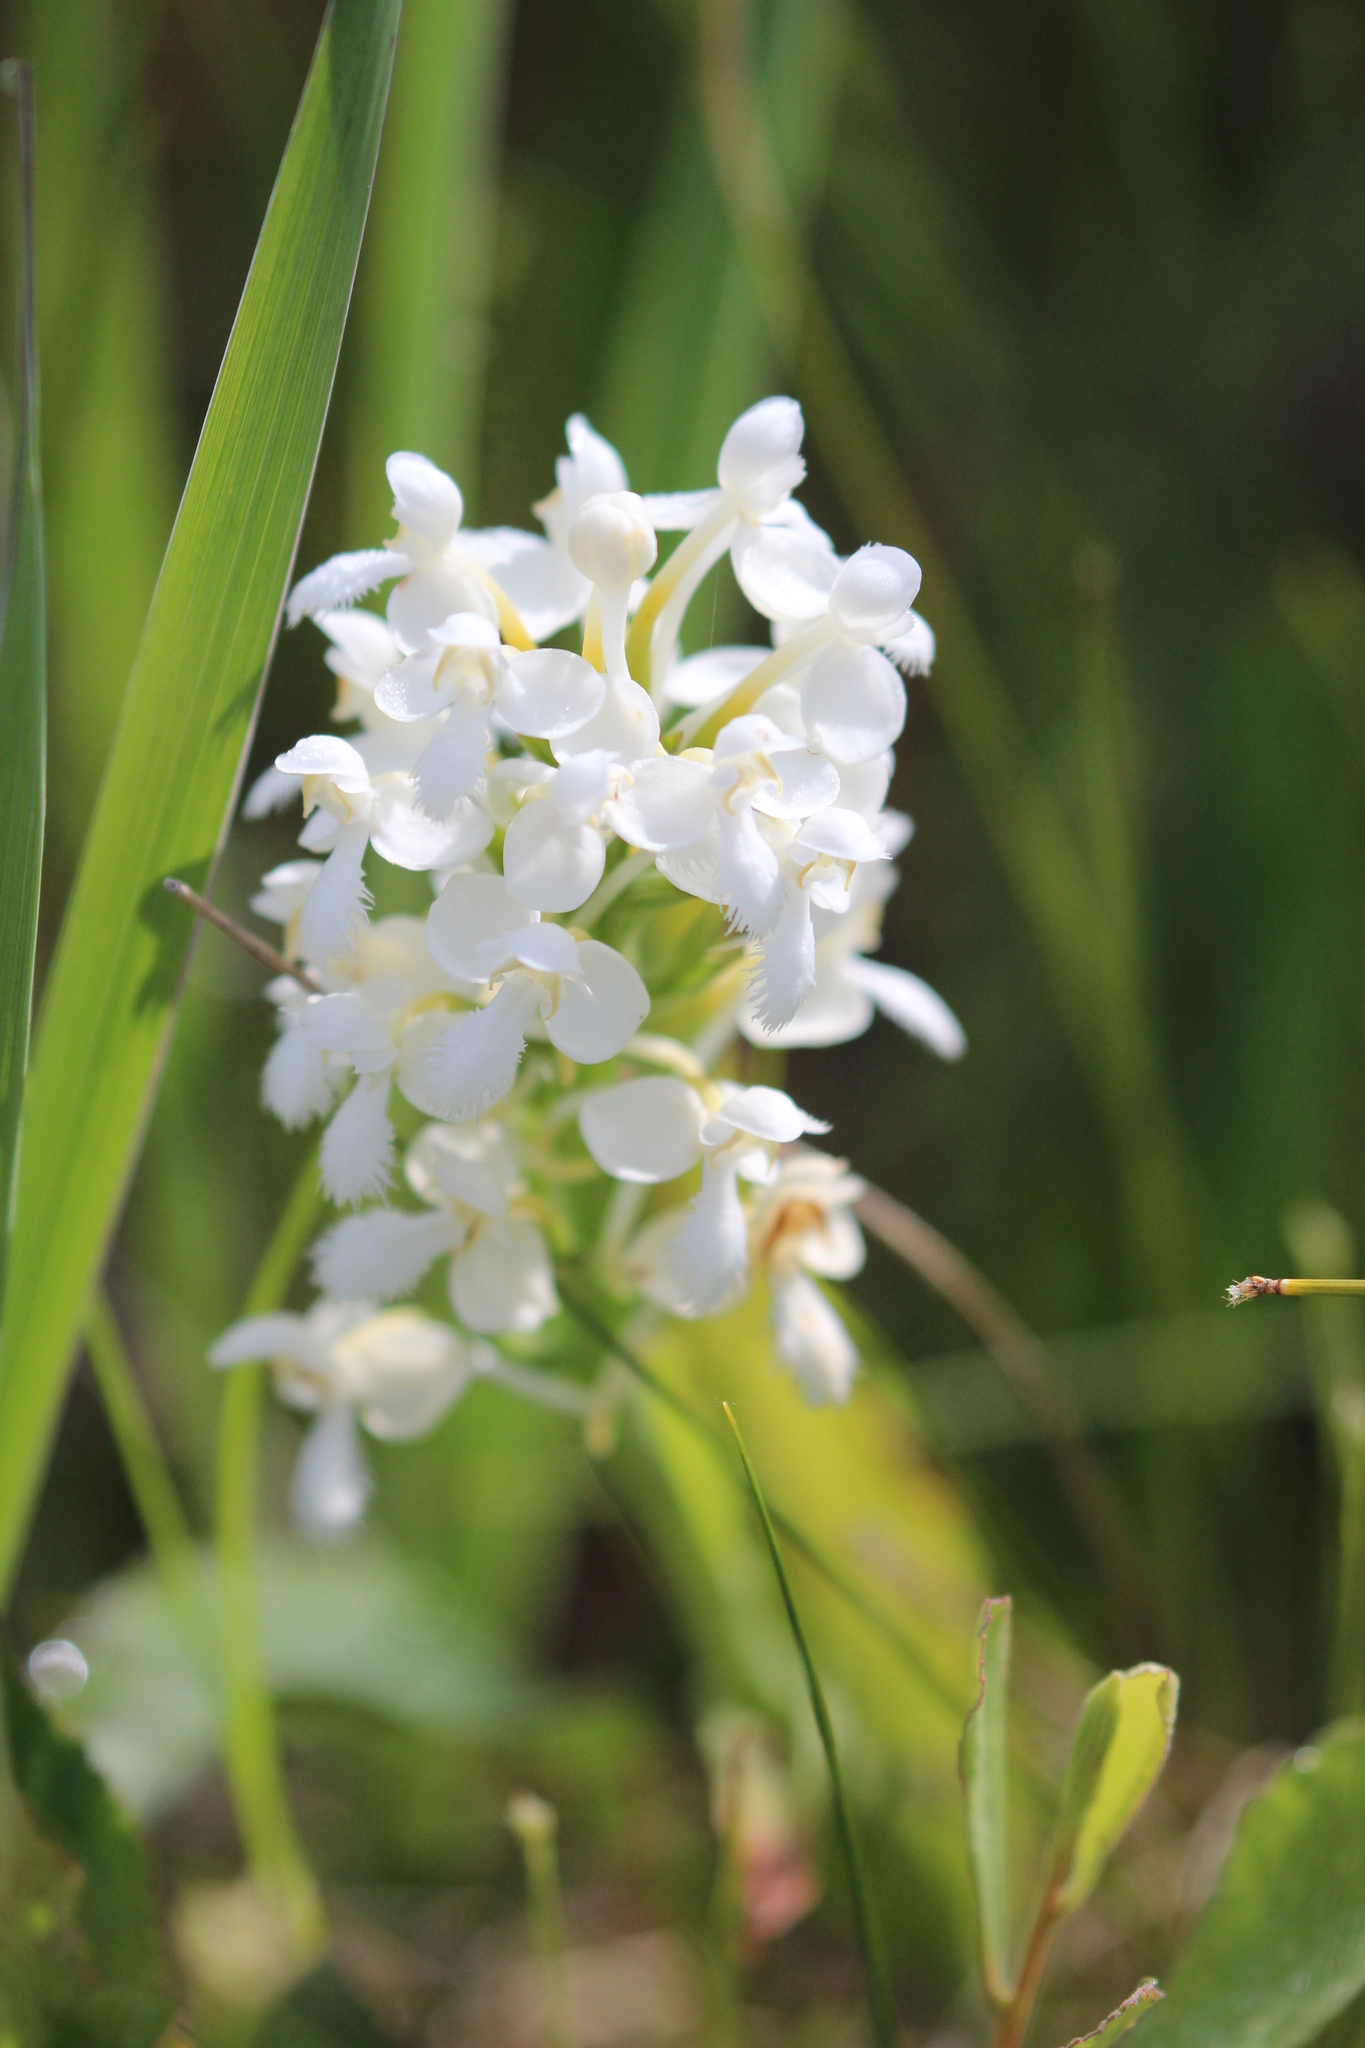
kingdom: Plantae
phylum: Tracheophyta
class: Liliopsida
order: Asparagales
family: Orchidaceae
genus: Platanthera
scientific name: Platanthera blephariglottis
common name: White fringed orchid
